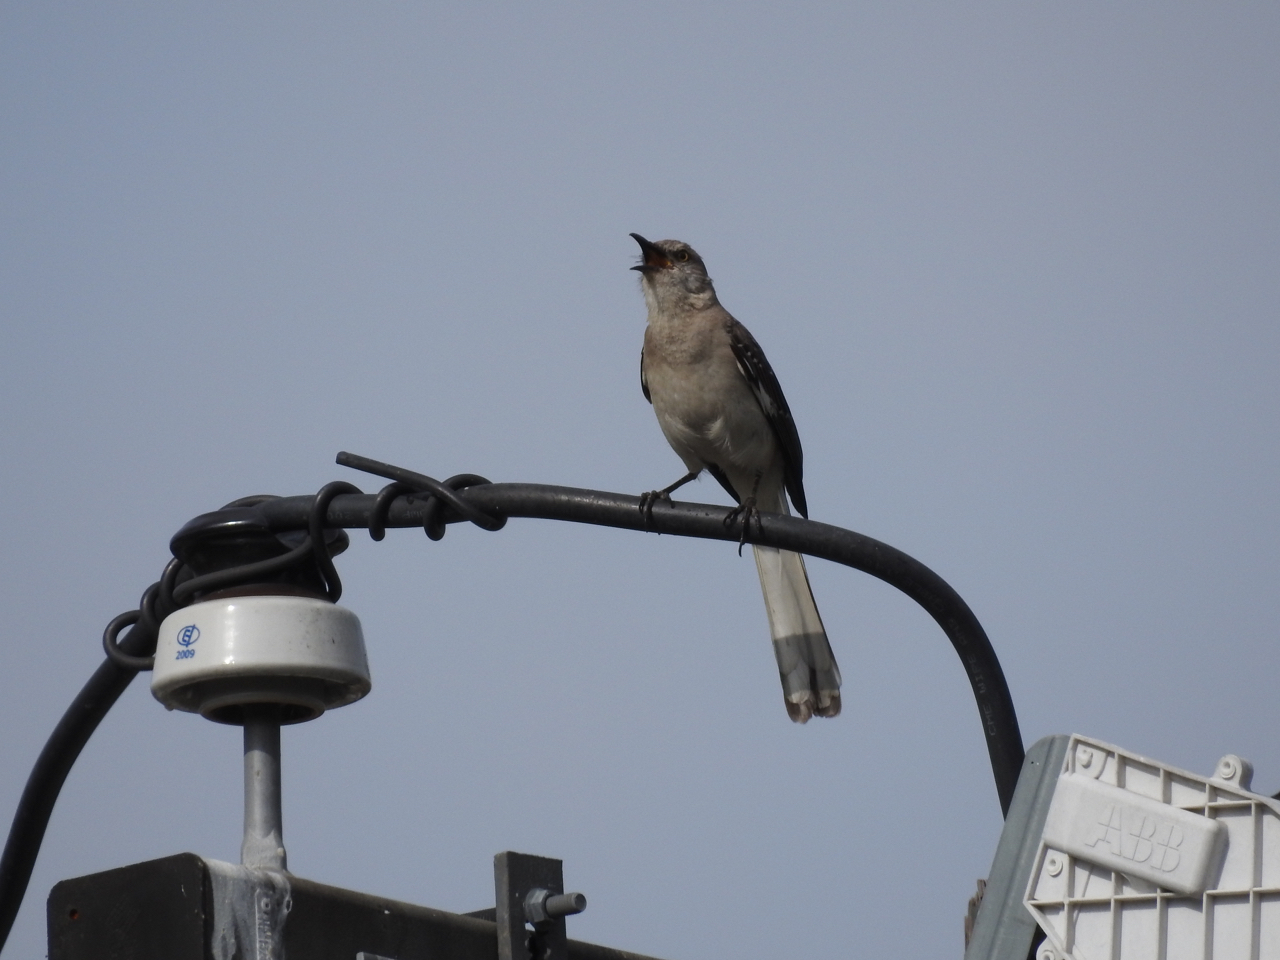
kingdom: Animalia
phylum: Chordata
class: Aves
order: Passeriformes
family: Mimidae
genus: Mimus
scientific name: Mimus polyglottos
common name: Northern mockingbird
